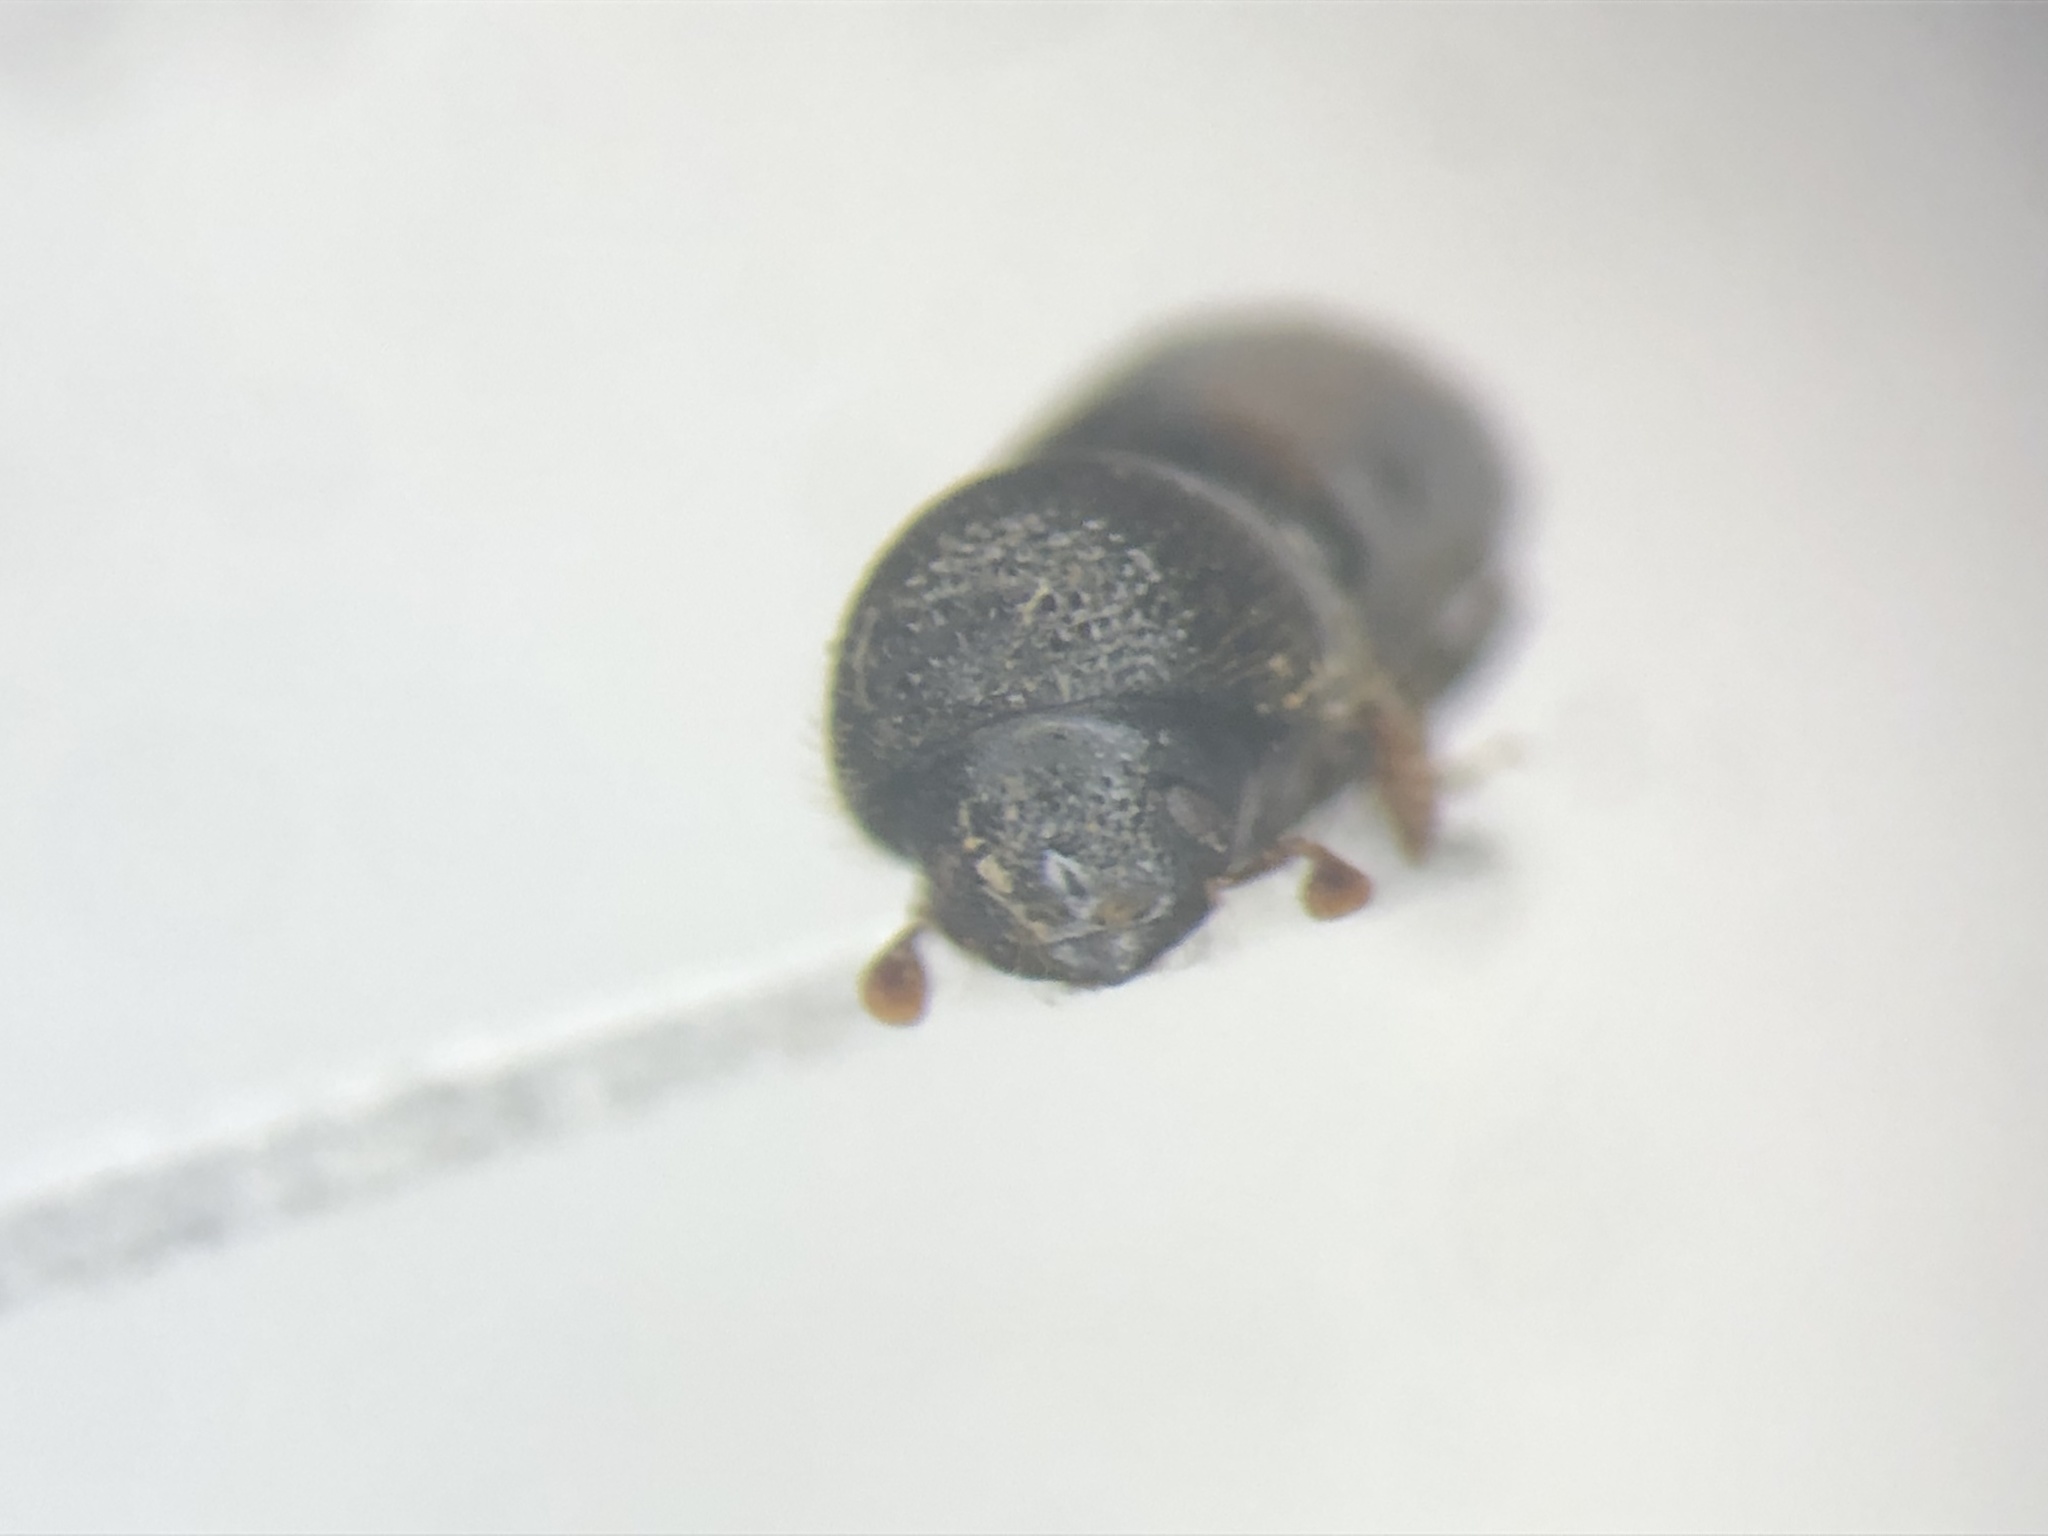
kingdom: Animalia
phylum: Arthropoda
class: Insecta
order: Coleoptera
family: Curculionidae
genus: Trypodendron
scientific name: Trypodendron retusum
